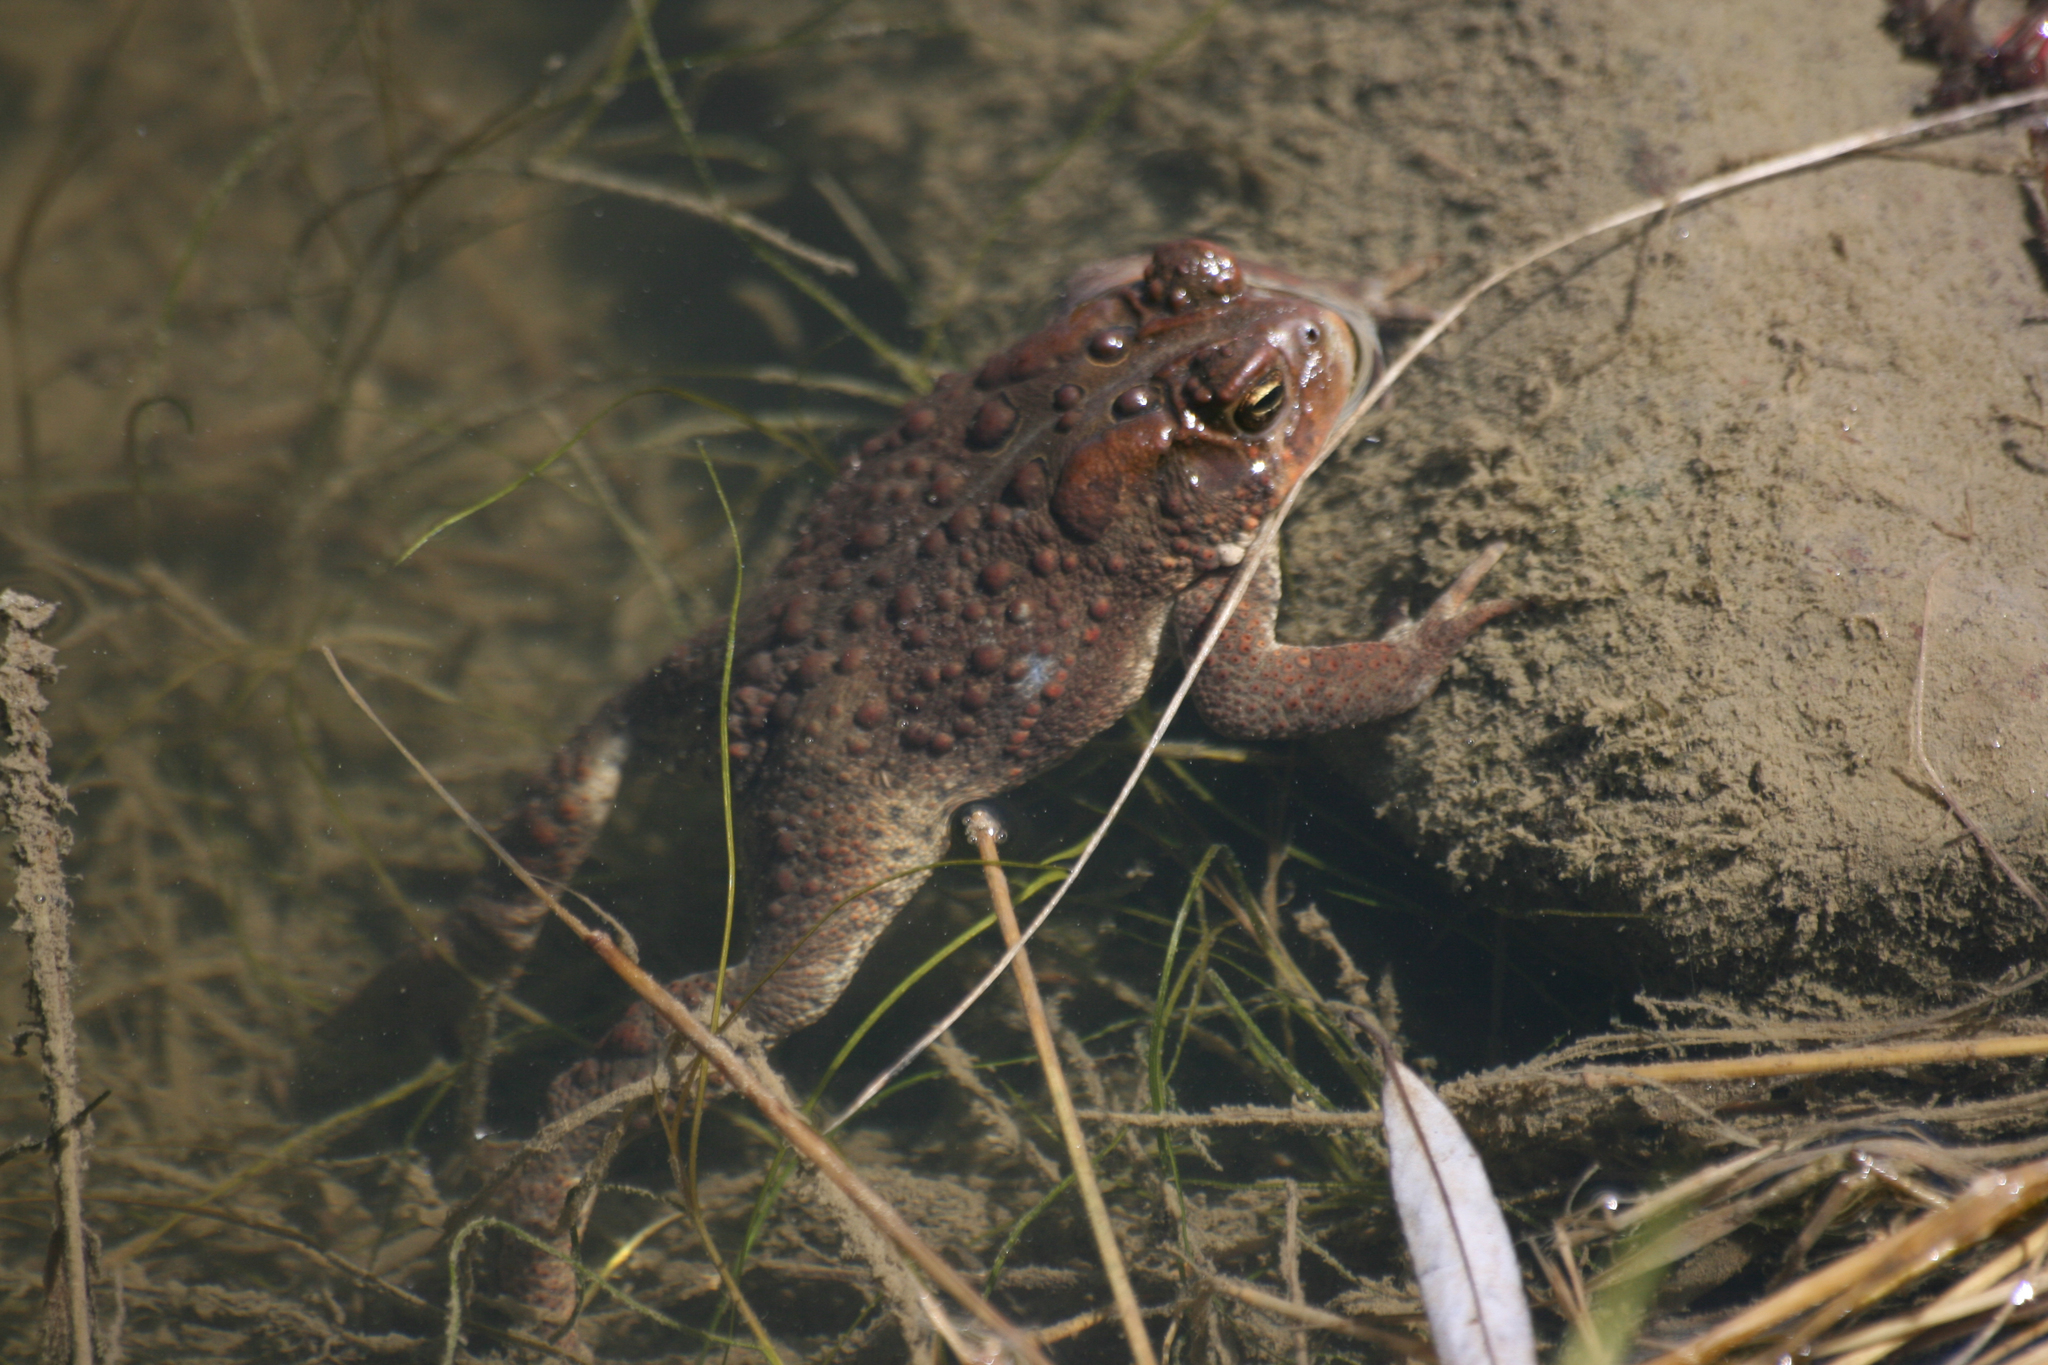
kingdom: Animalia
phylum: Chordata
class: Amphibia
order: Anura
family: Bufonidae
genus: Anaxyrus
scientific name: Anaxyrus americanus
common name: American toad
